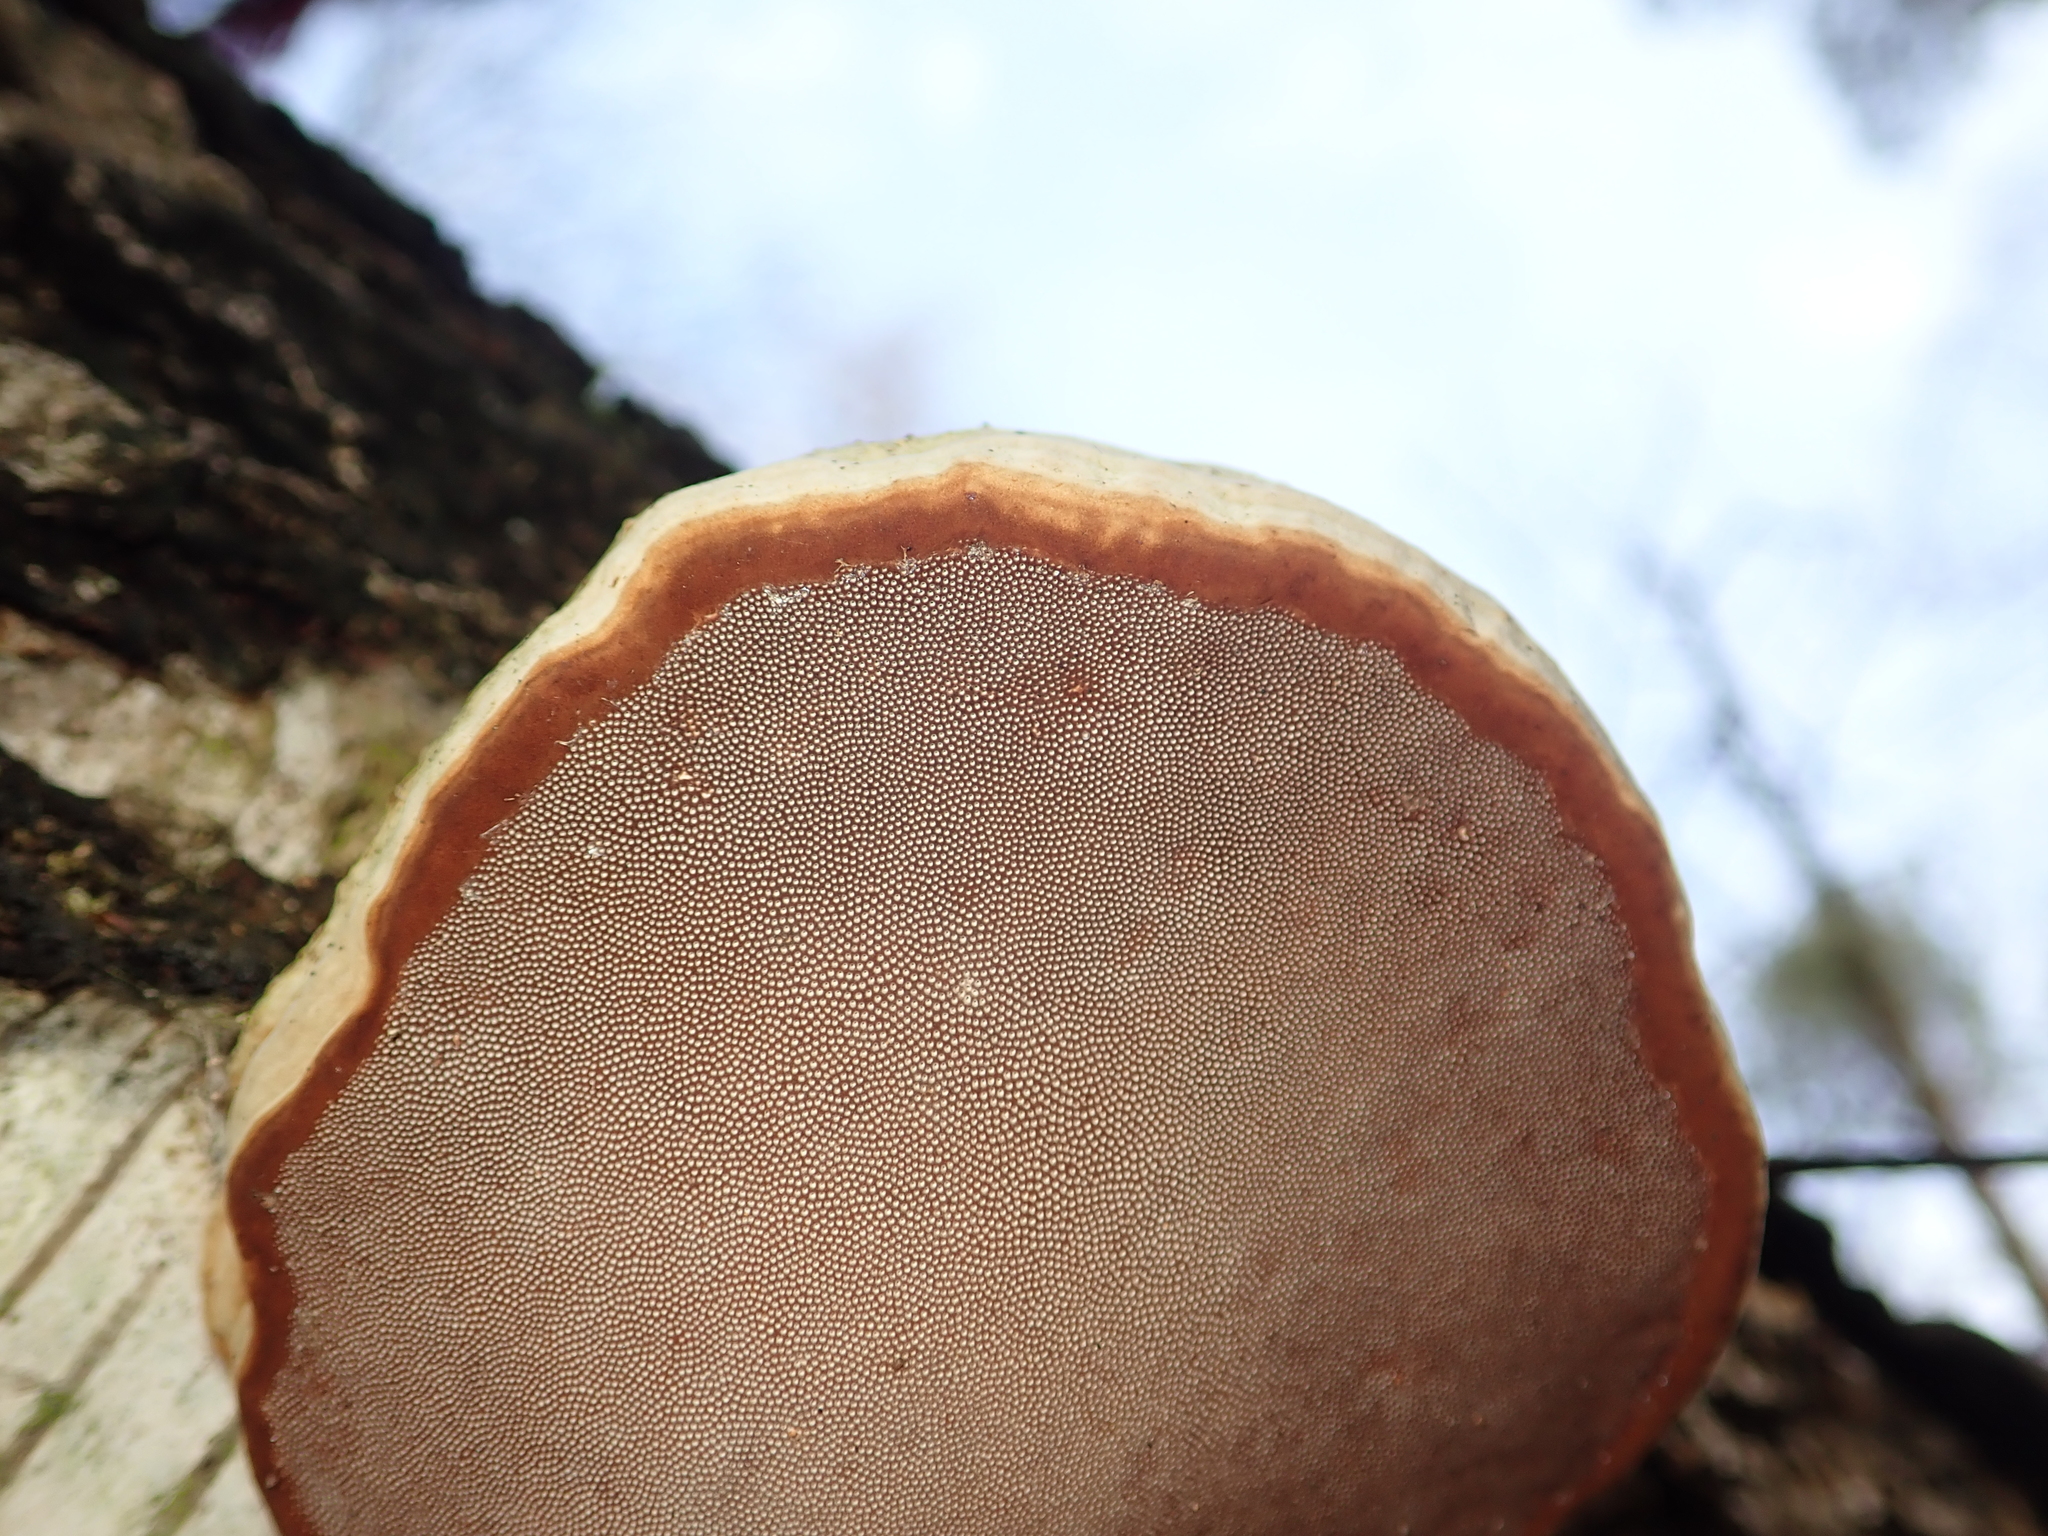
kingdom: Fungi
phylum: Basidiomycota
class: Agaricomycetes
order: Polyporales
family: Polyporaceae
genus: Fomes
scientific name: Fomes fomentarius
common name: Hoof fungus
